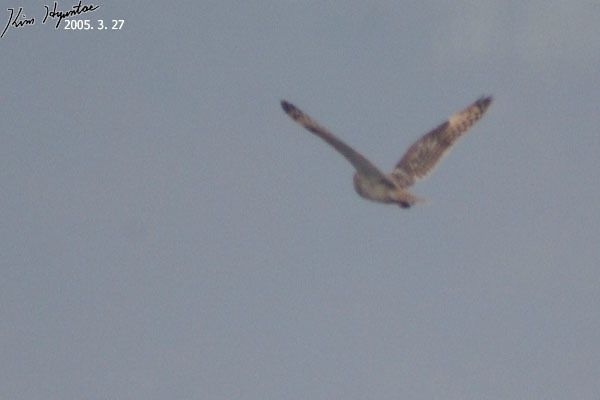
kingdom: Animalia
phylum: Chordata
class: Aves
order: Strigiformes
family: Strigidae
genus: Asio
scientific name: Asio flammeus
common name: Short-eared owl
